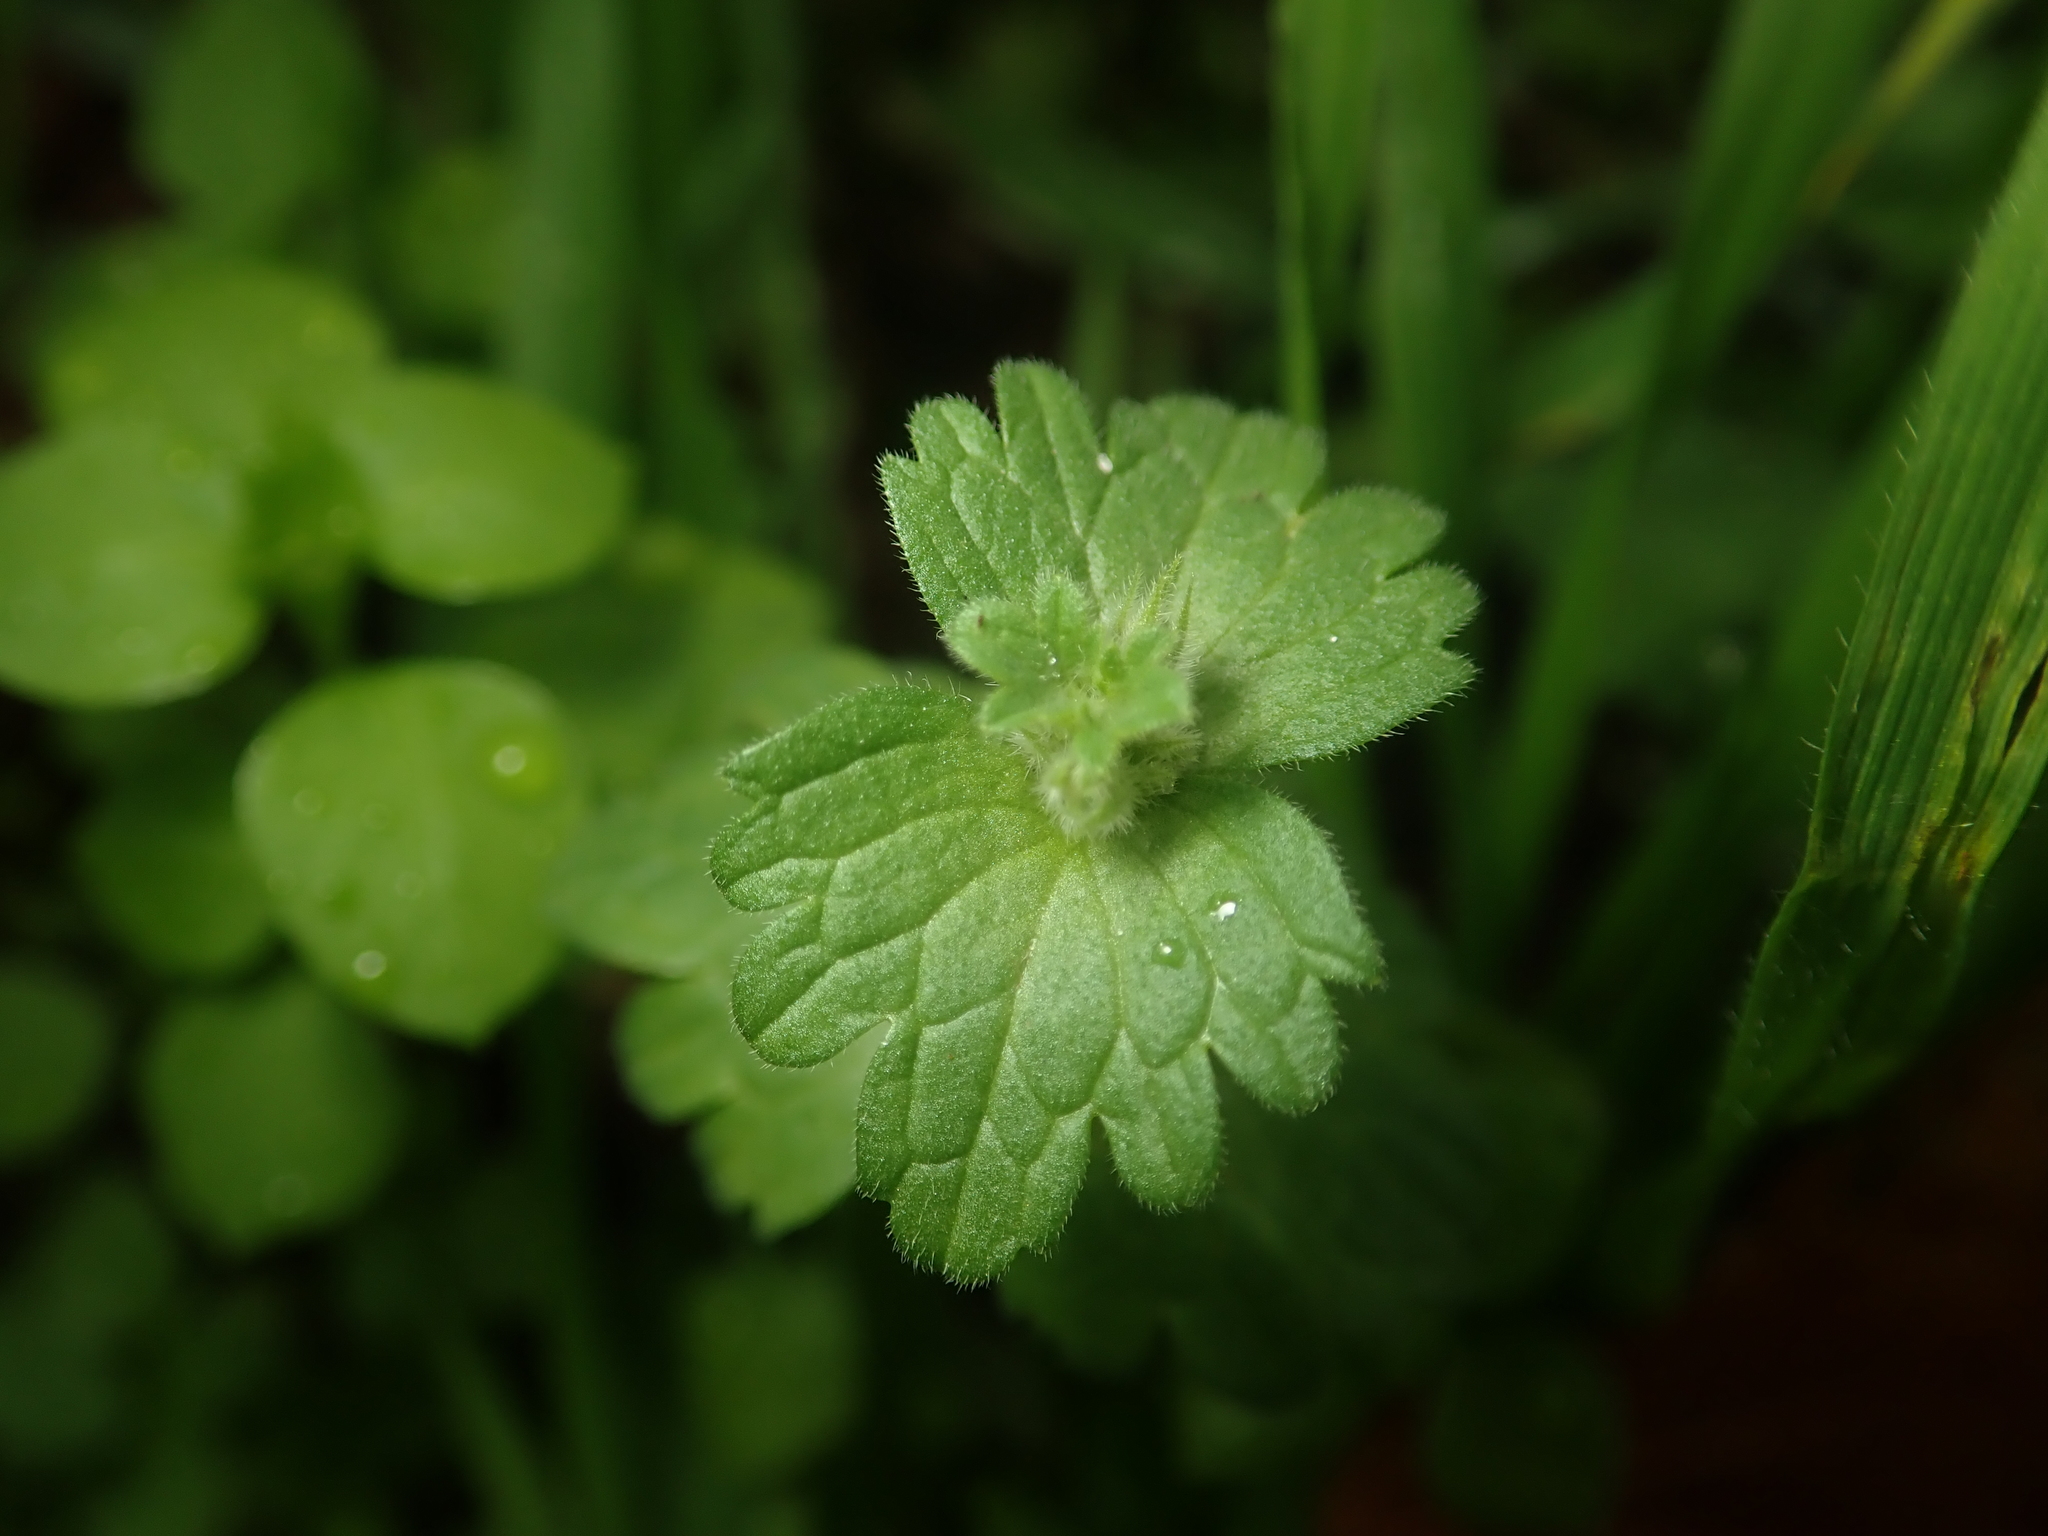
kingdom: Plantae
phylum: Tracheophyta
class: Magnoliopsida
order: Lamiales
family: Lamiaceae
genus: Lamium
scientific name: Lamium amplexicaule
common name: Henbit dead-nettle
